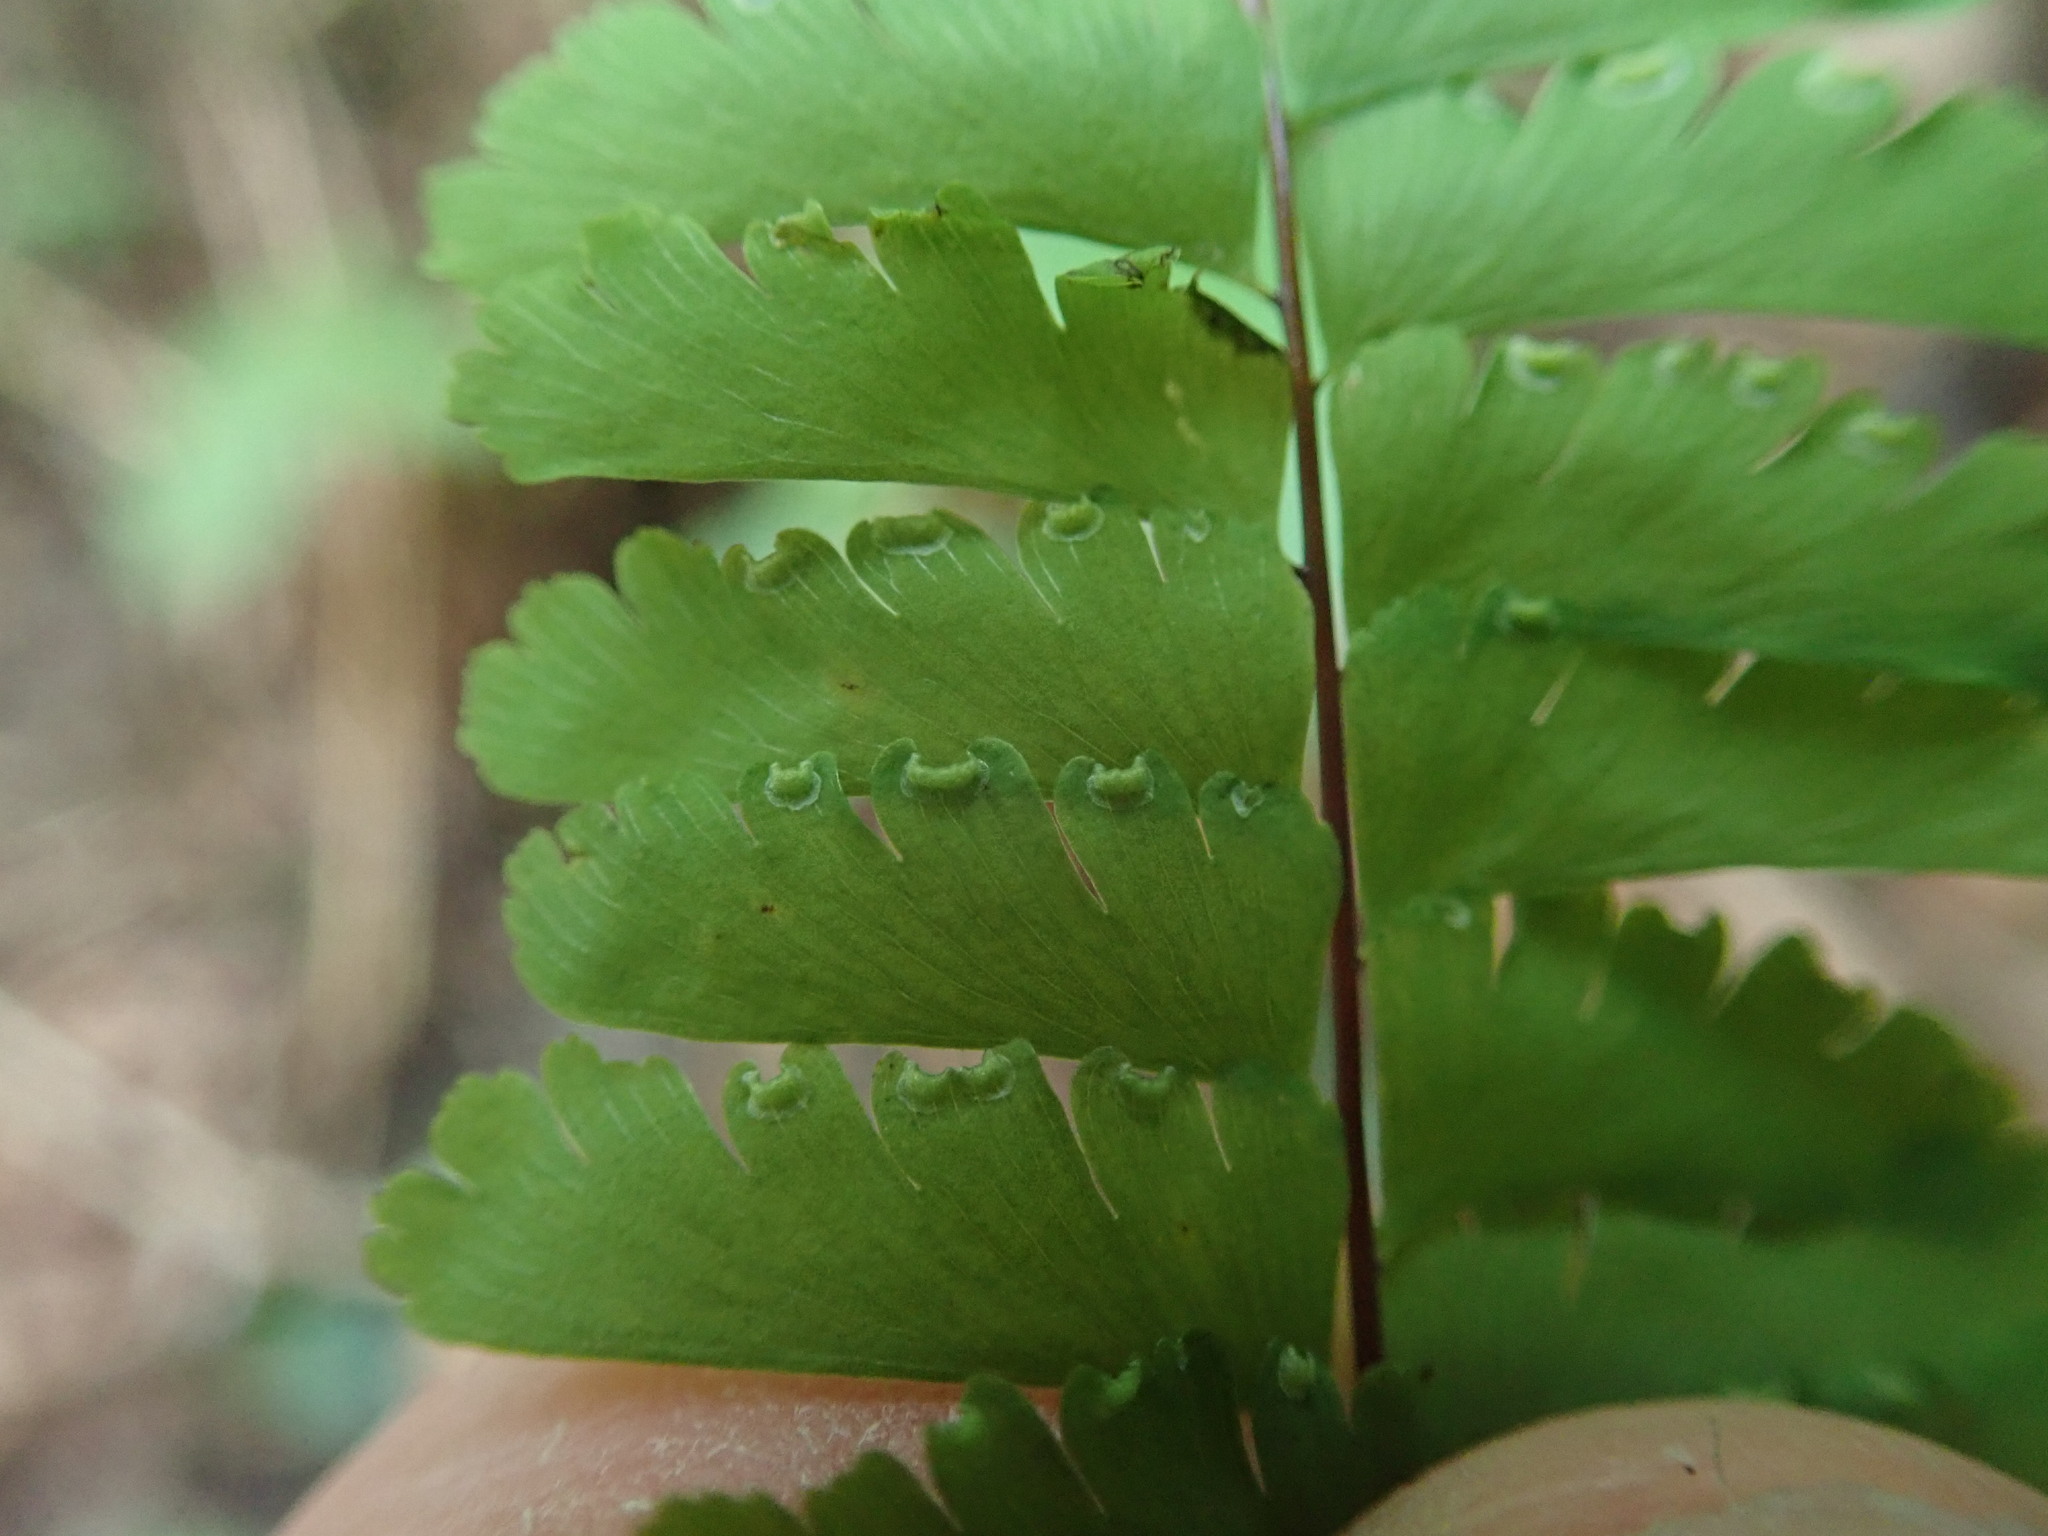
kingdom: Plantae
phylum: Tracheophyta
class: Polypodiopsida
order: Polypodiales
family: Pteridaceae
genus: Adiantum
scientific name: Adiantum aleuticum
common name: Aleutian maidenhair fern
